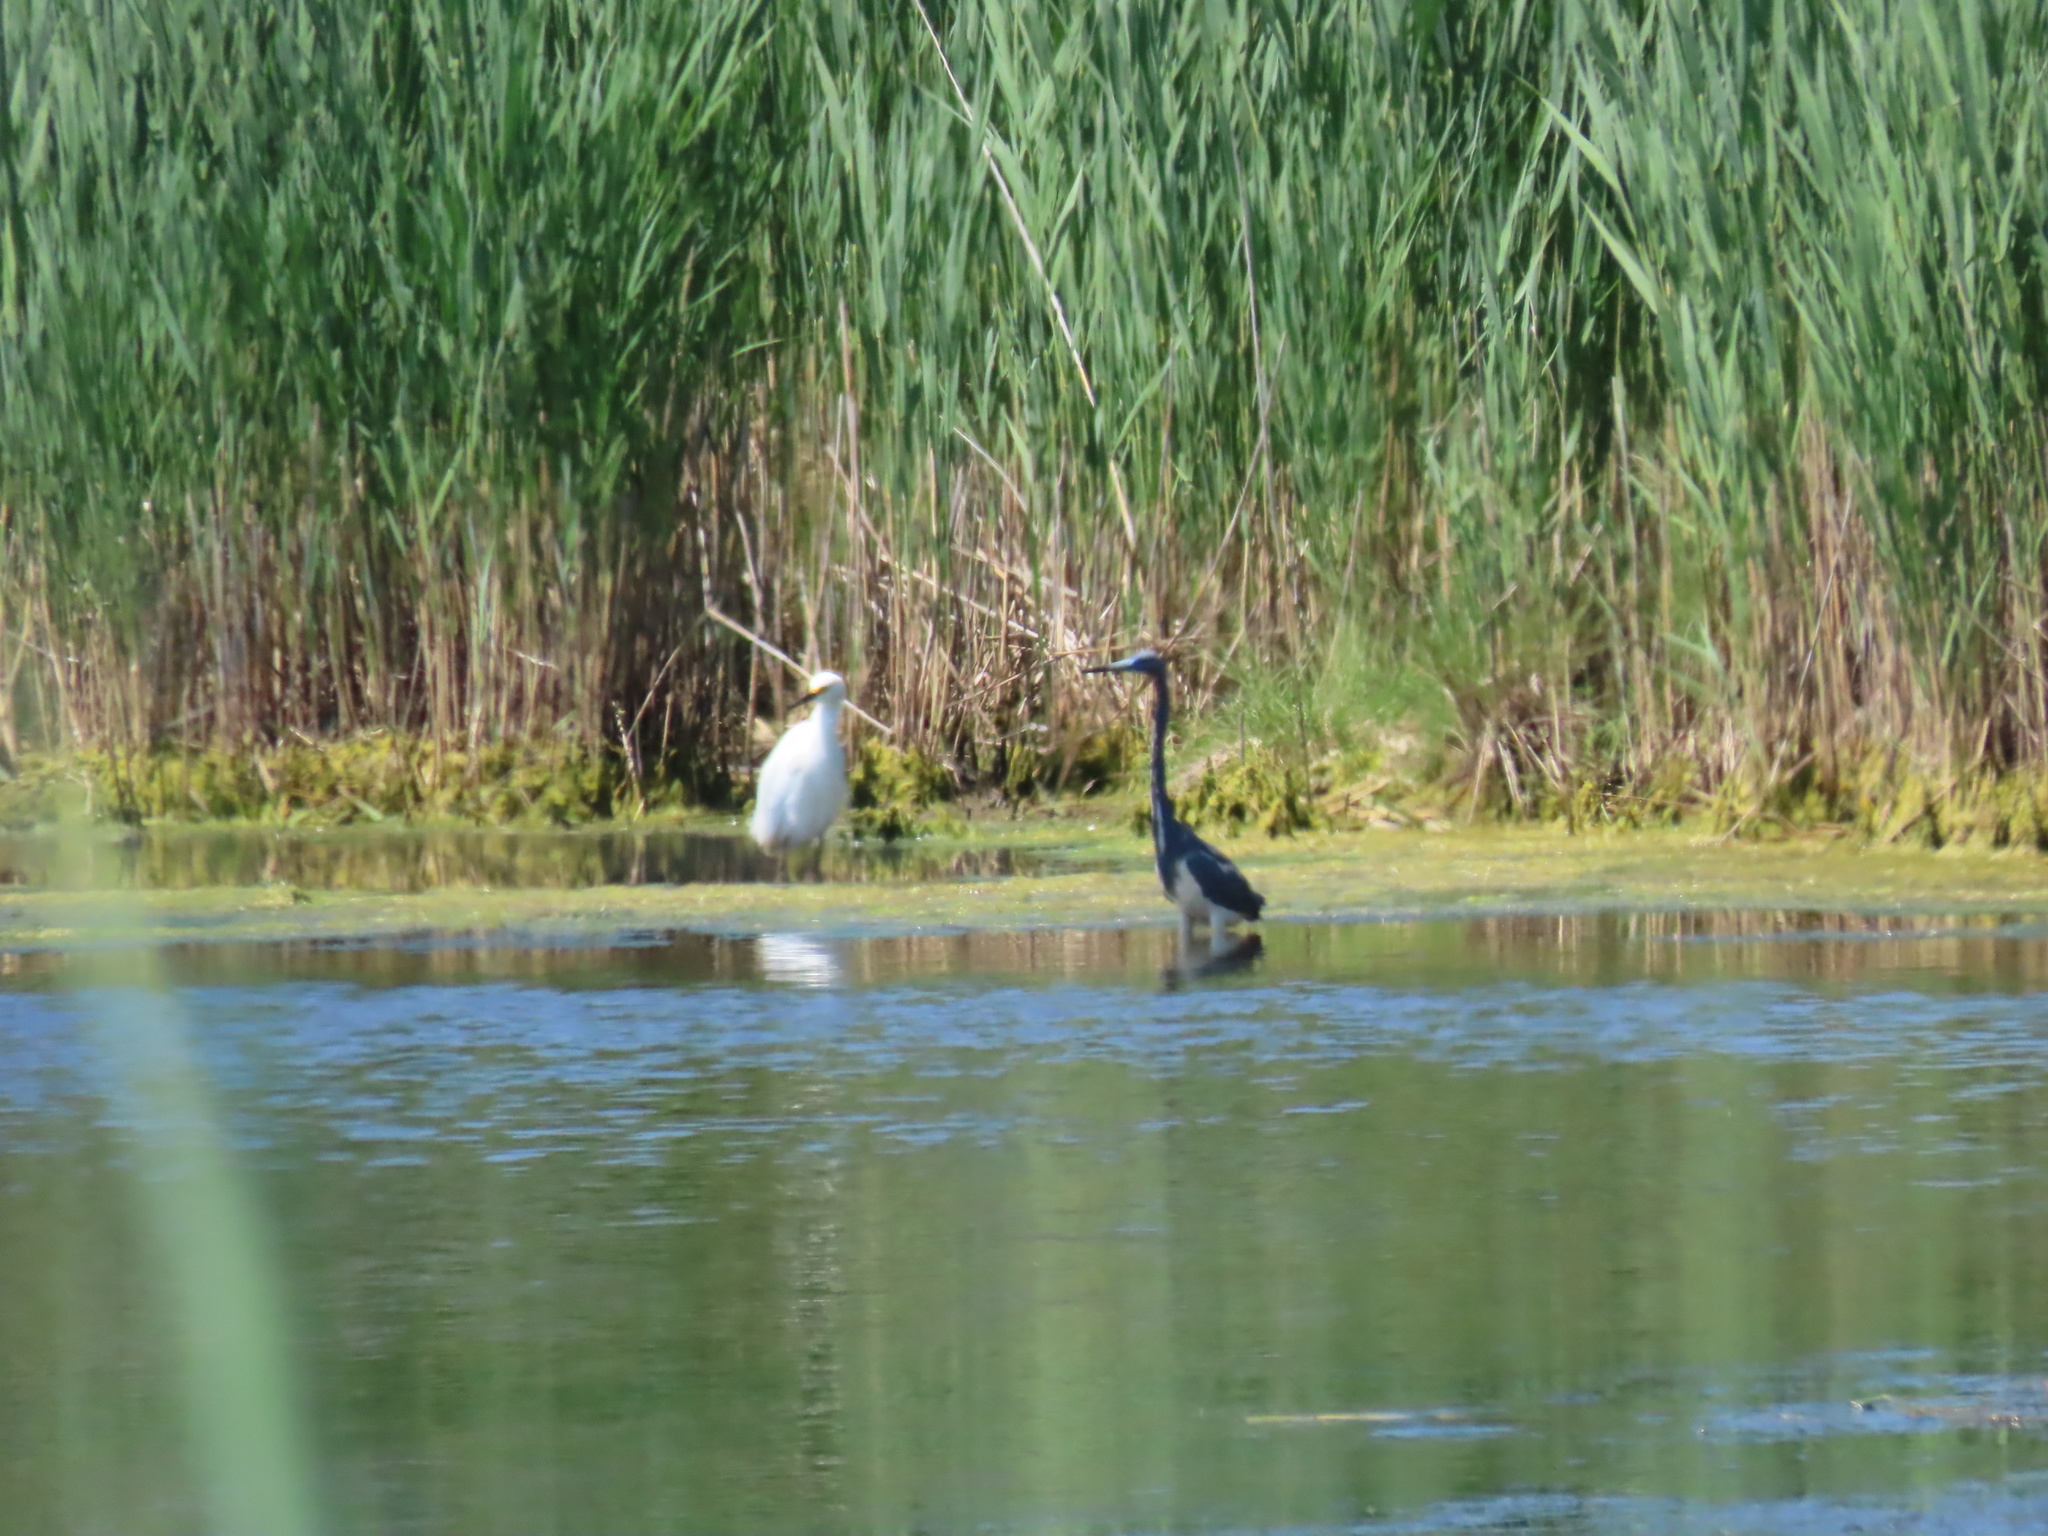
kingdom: Animalia
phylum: Chordata
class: Aves
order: Pelecaniformes
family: Ardeidae
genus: Egretta
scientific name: Egretta tricolor
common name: Tricolored heron
